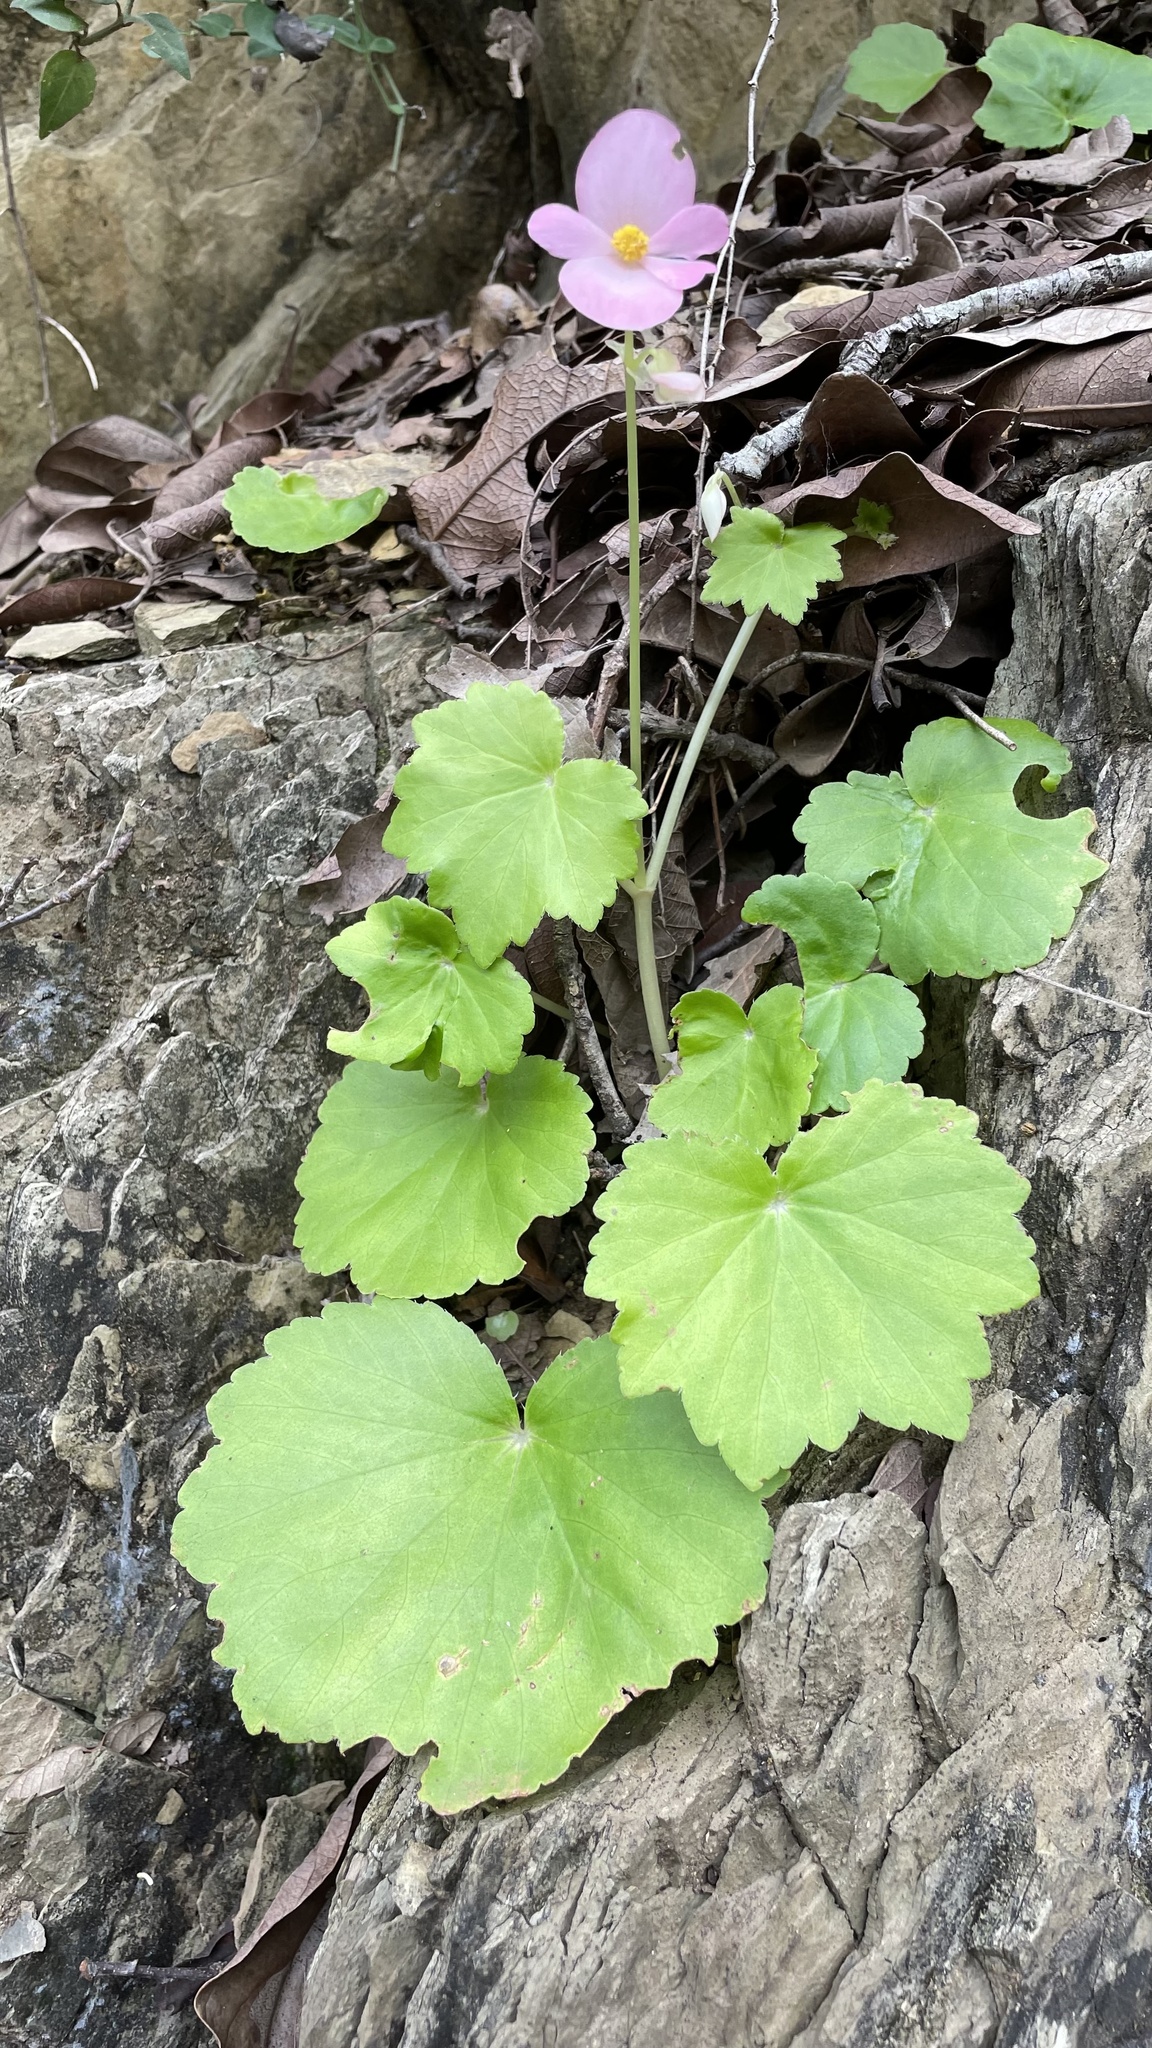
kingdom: Plantae
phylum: Tracheophyta
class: Magnoliopsida
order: Cucurbitales
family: Begoniaceae
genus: Begonia
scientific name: Begonia uniflora
